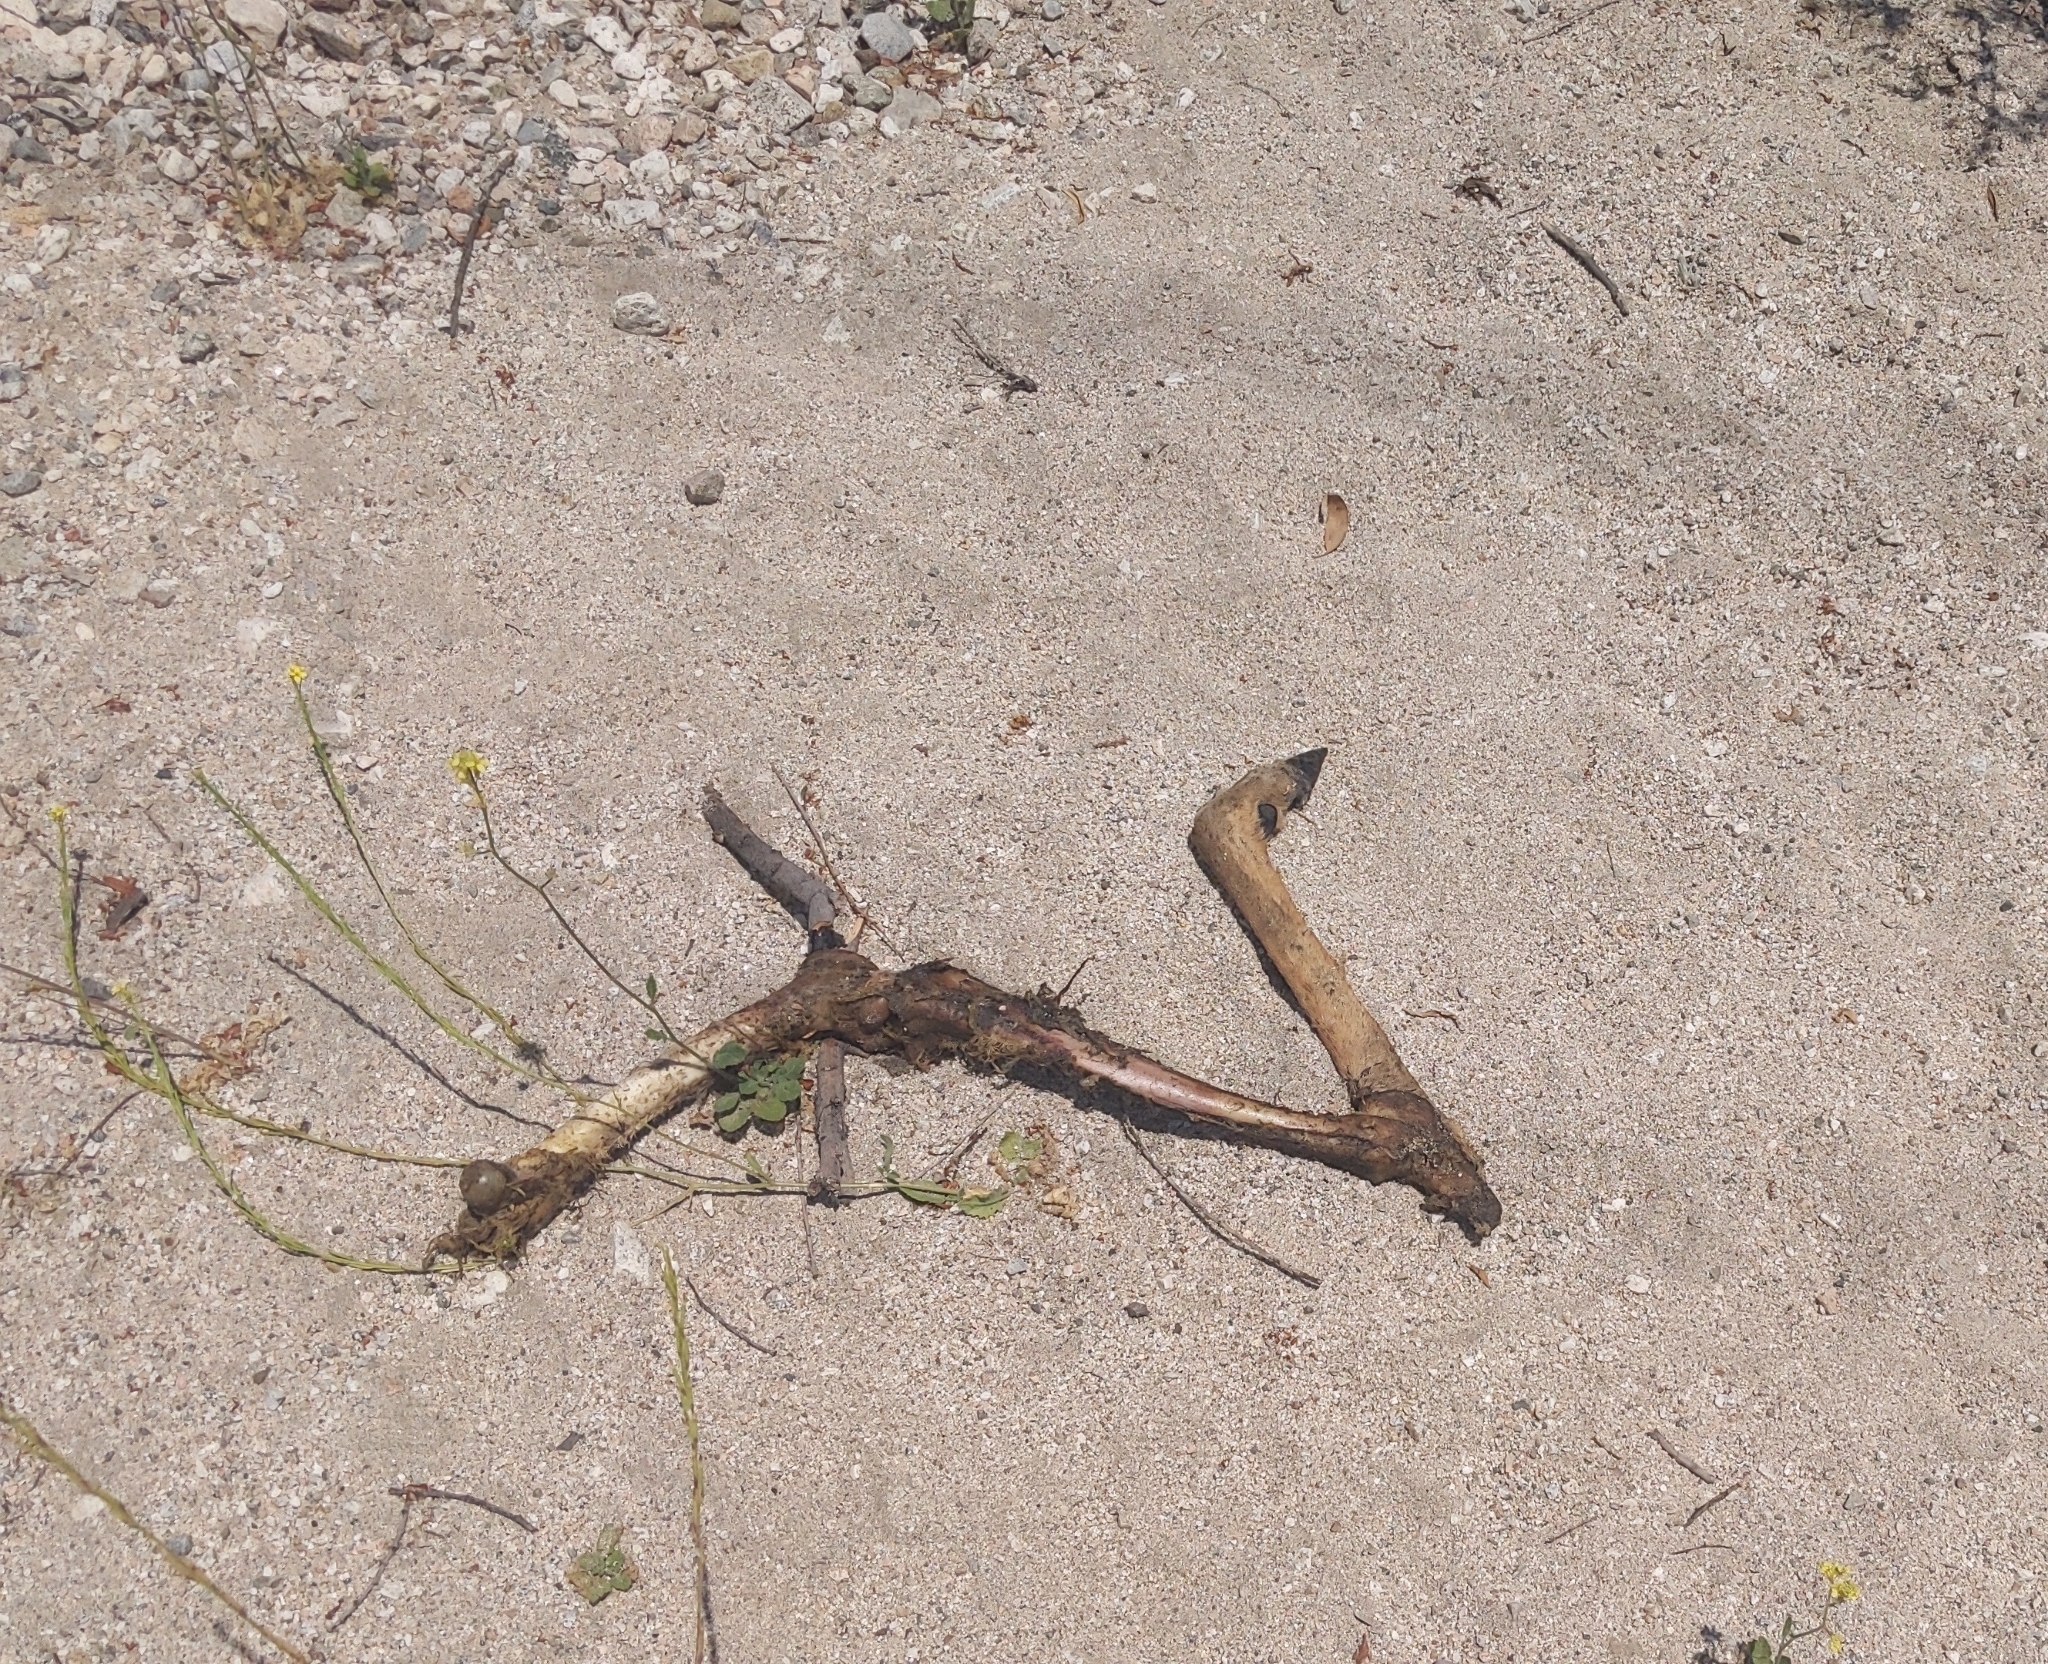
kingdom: Animalia
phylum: Chordata
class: Mammalia
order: Artiodactyla
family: Cervidae
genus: Odocoileus
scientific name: Odocoileus hemionus
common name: Mule deer
